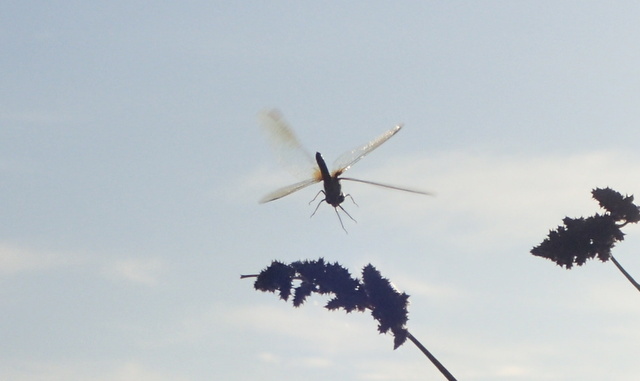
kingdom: Animalia
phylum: Arthropoda
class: Insecta
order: Odonata
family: Libellulidae
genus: Pachydiplax
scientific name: Pachydiplax longipennis
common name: Blue dasher
